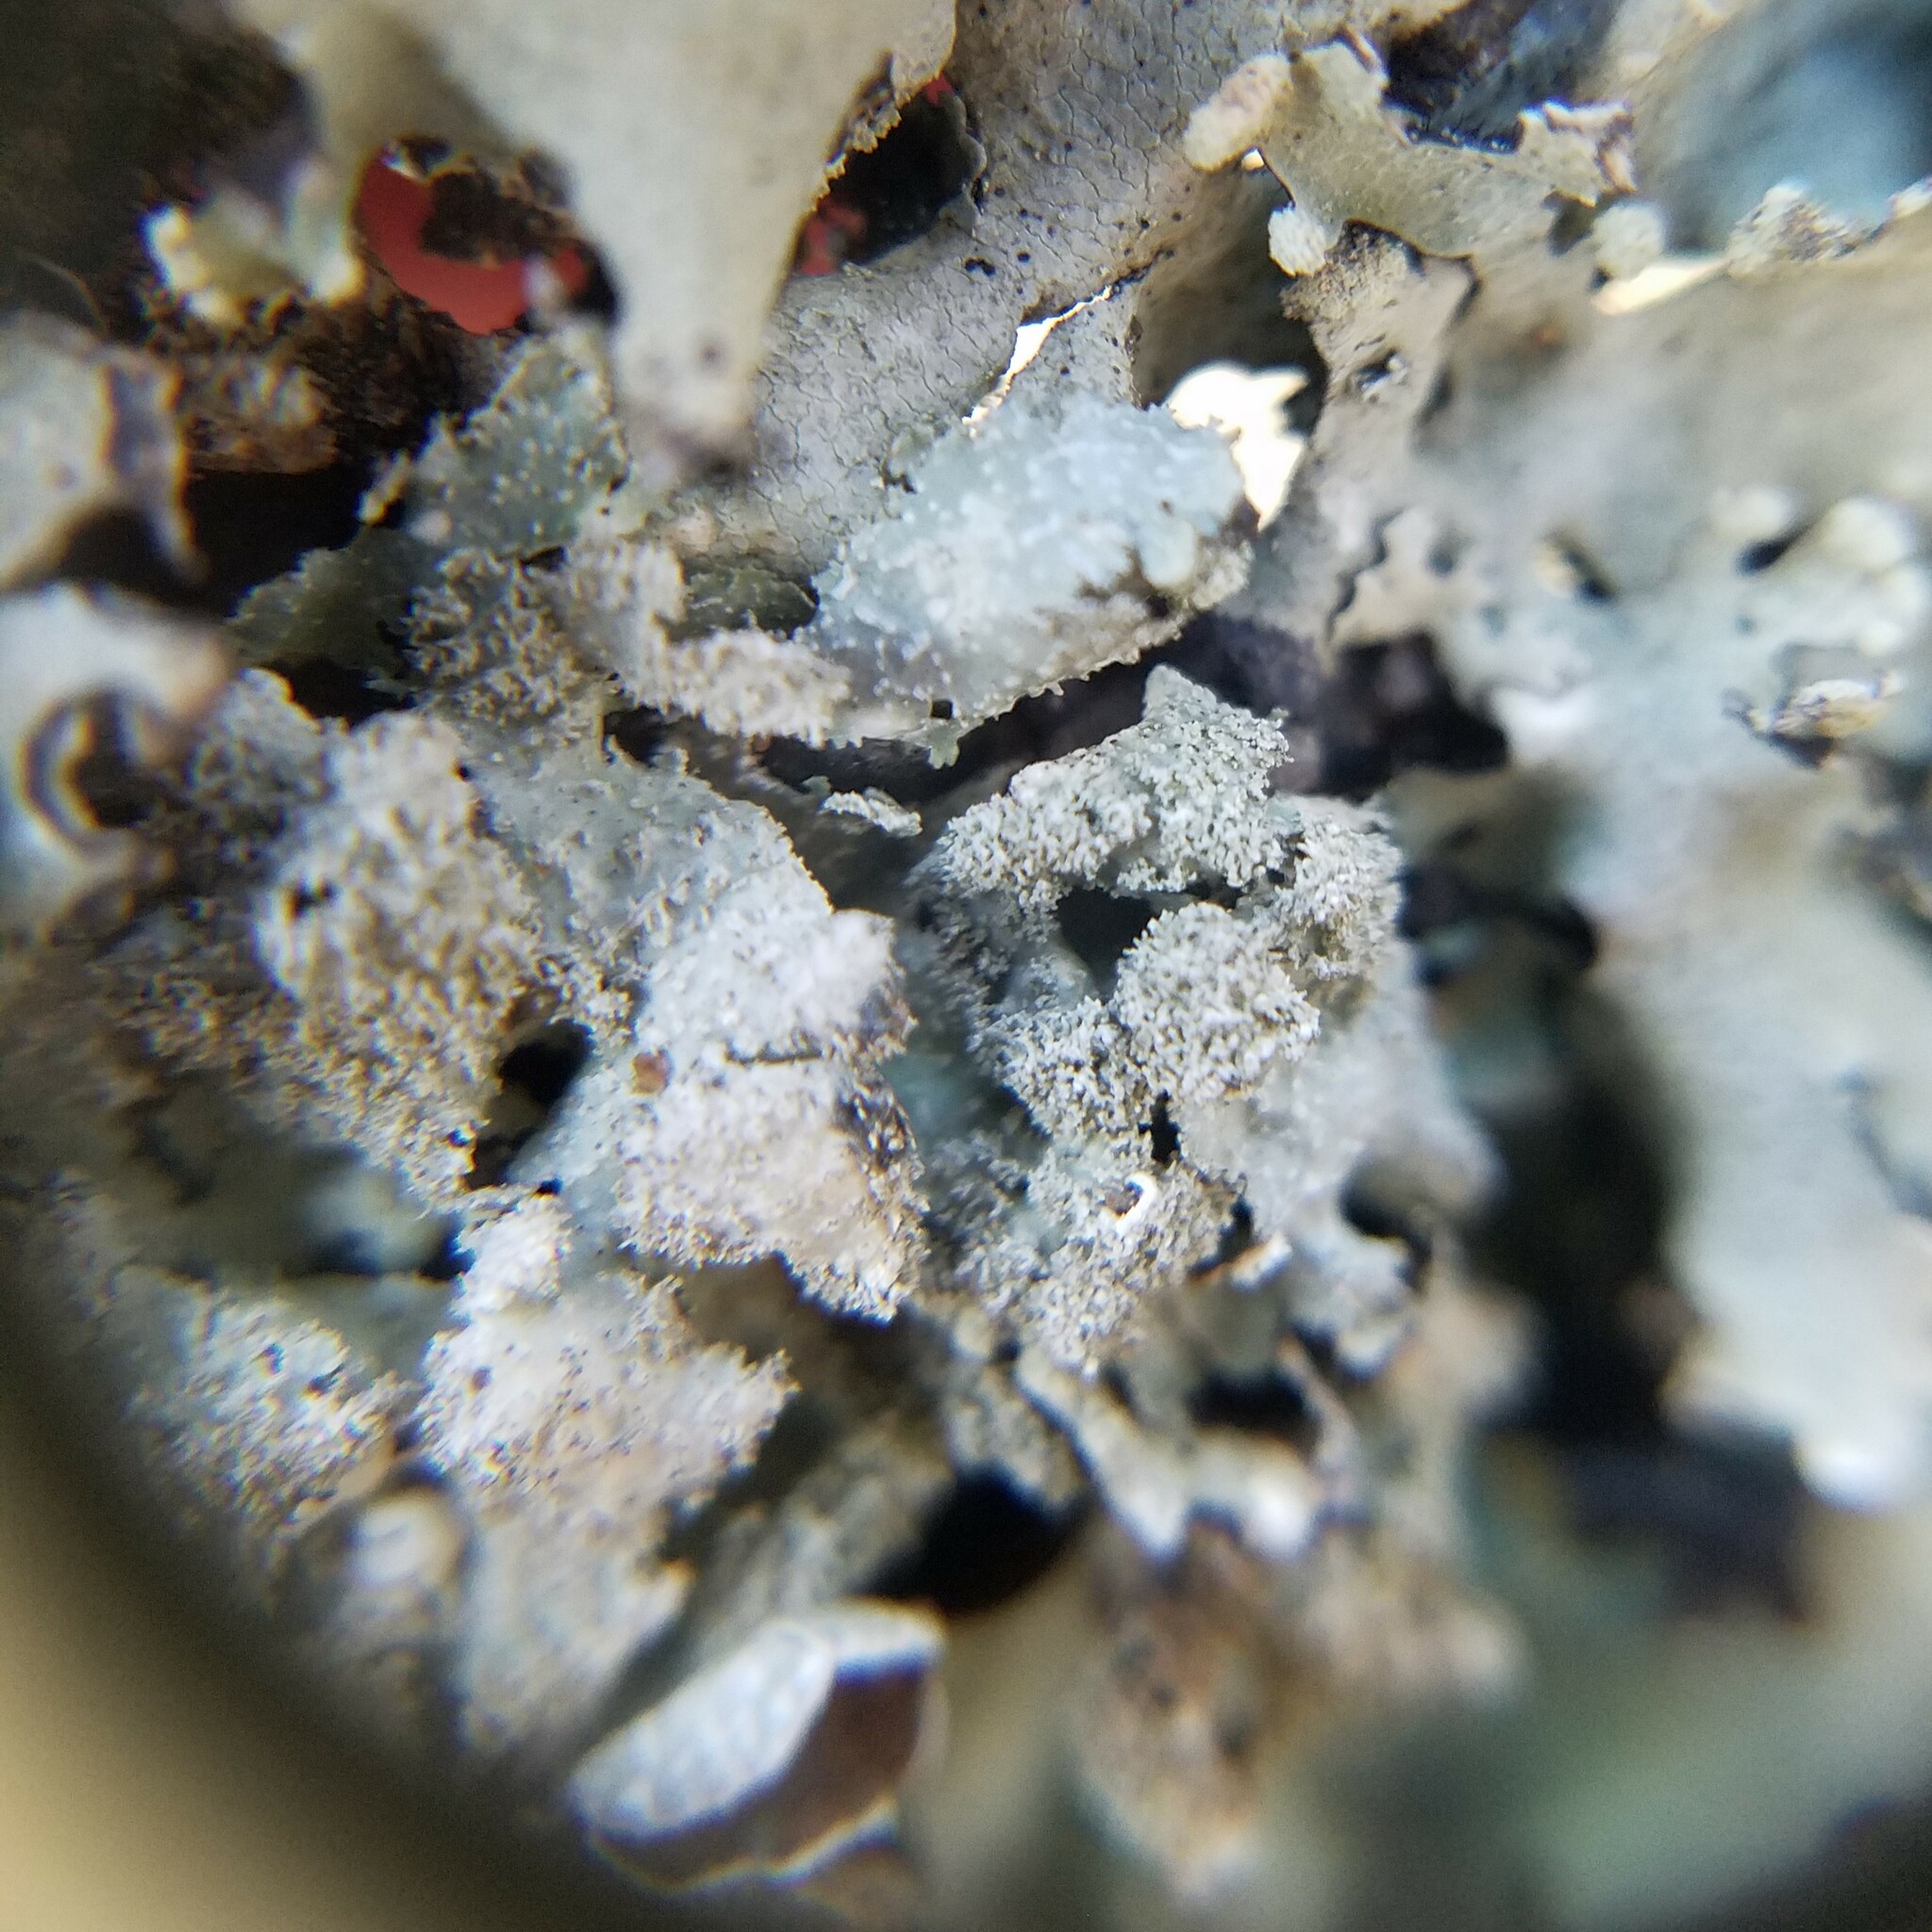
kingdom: Fungi
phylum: Ascomycota
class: Lecanoromycetes
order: Lecanorales
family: Parmeliaceae
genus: Punctelia
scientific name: Punctelia rudecta
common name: Rough speckled shield lichen
